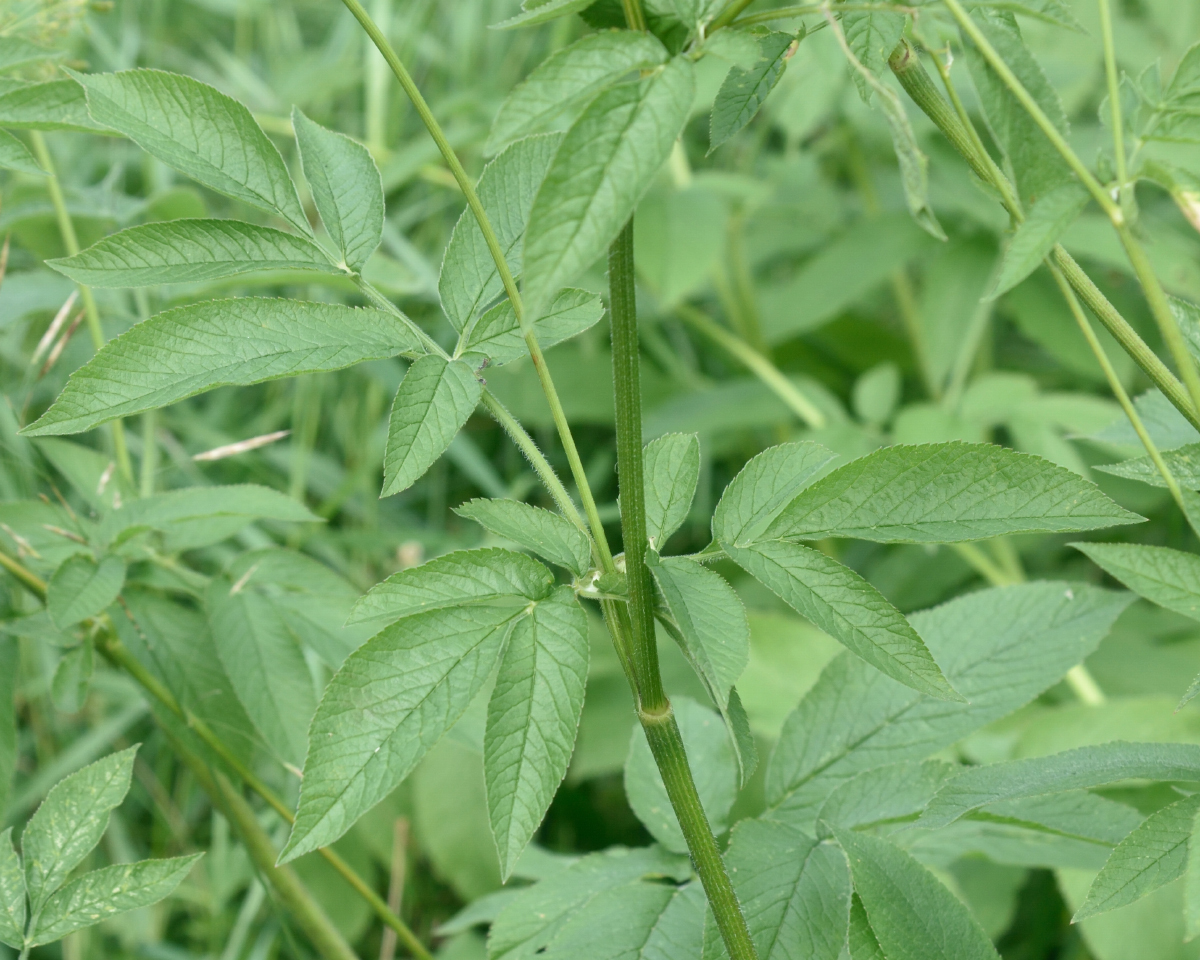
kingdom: Plantae
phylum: Tracheophyta
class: Magnoliopsida
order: Apiales
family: Apiaceae
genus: Chaerophyllum
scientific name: Chaerophyllum aromaticum
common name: Broadleaf chervil
